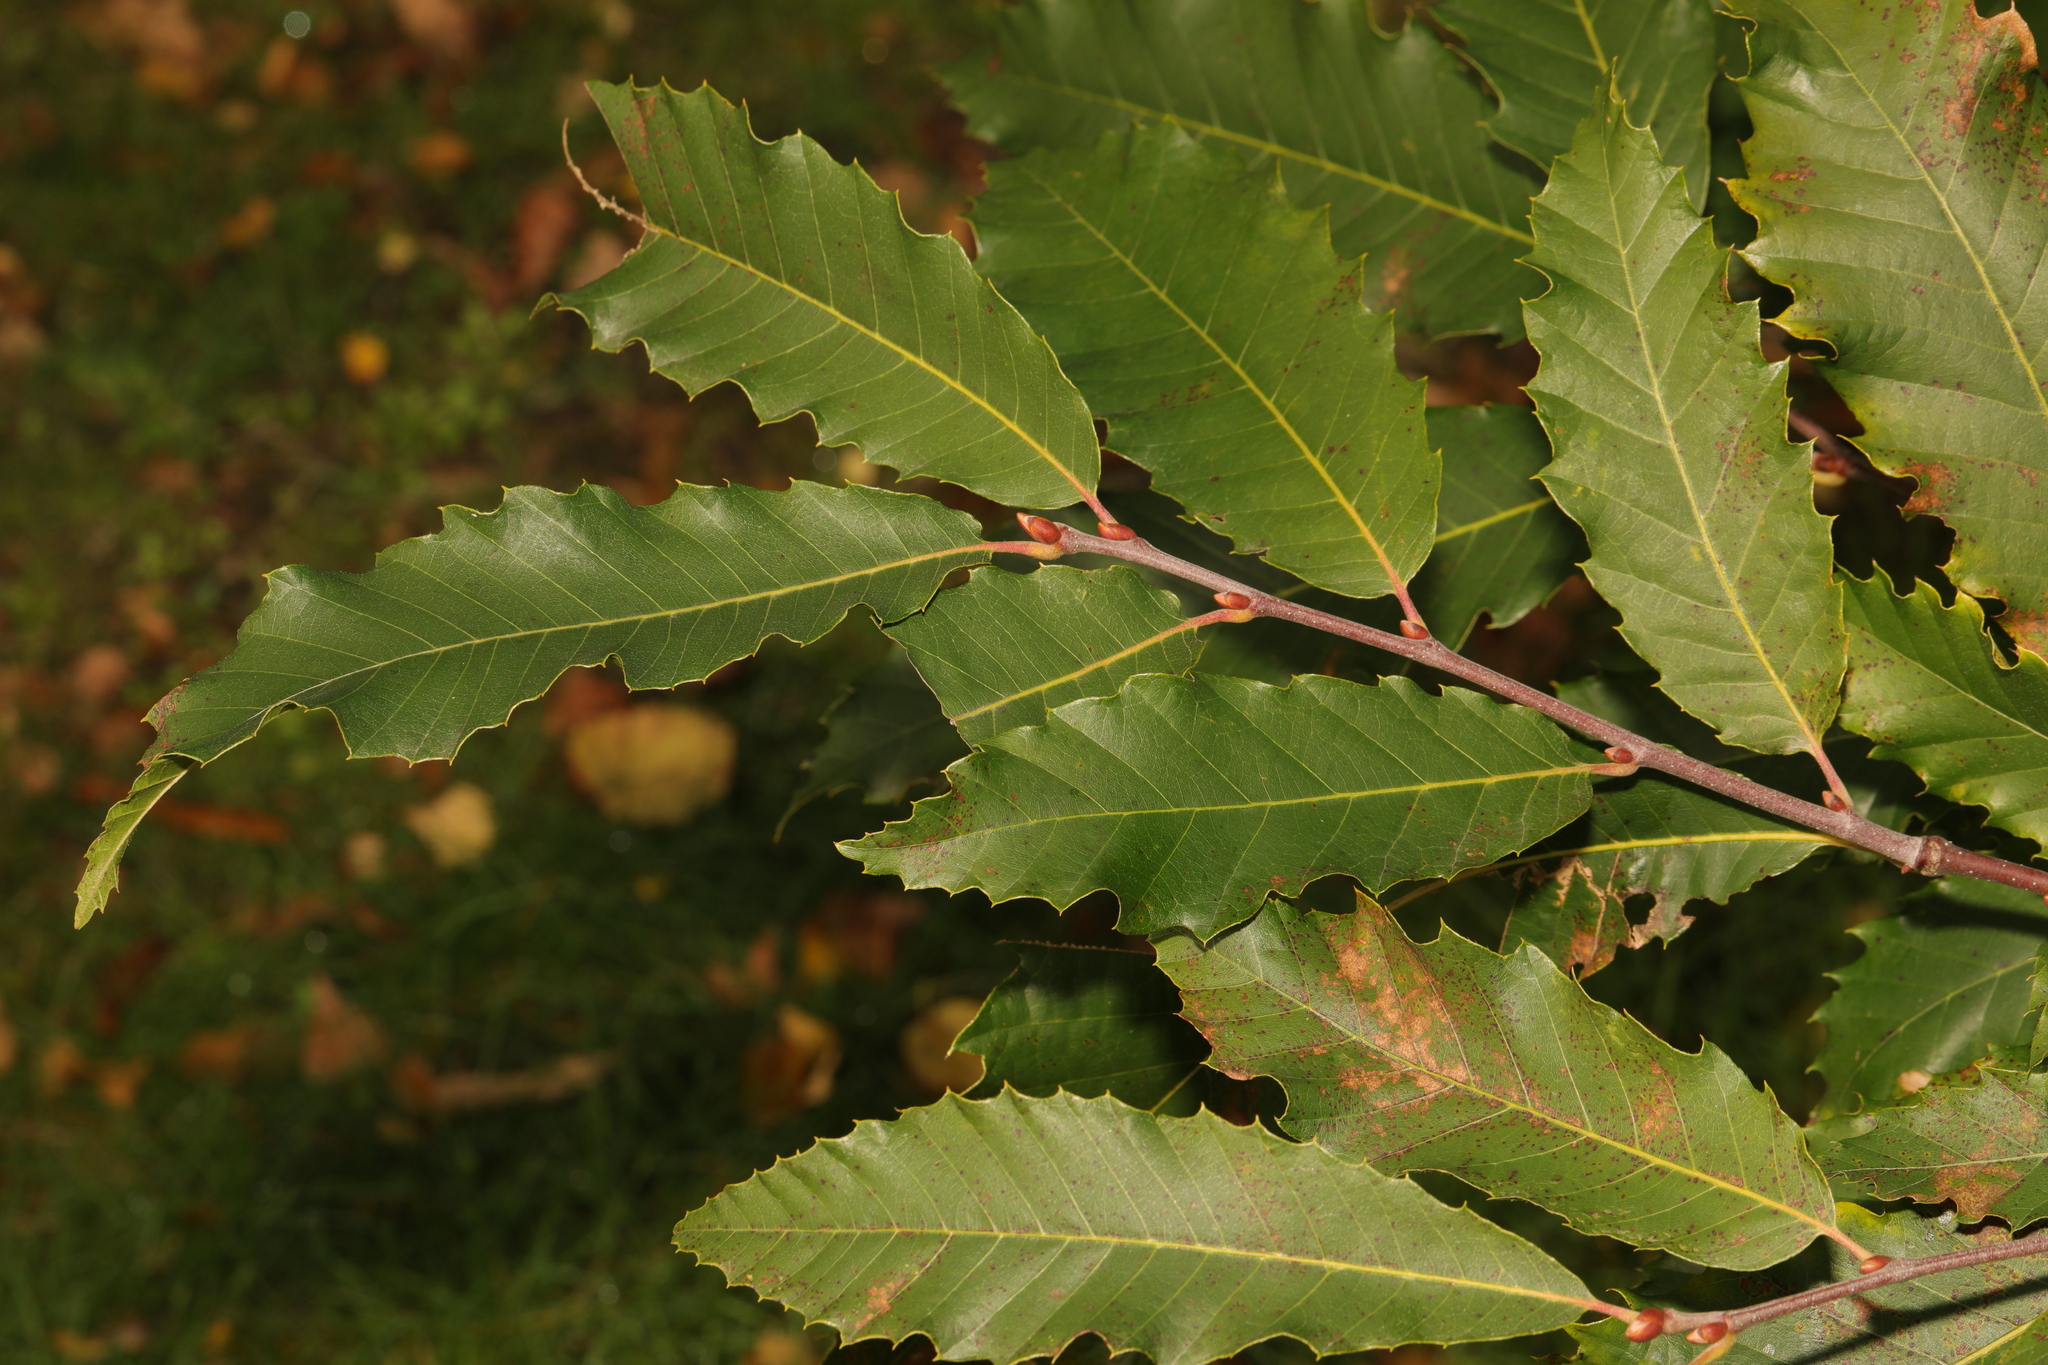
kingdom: Plantae
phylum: Tracheophyta
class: Magnoliopsida
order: Fagales
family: Fagaceae
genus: Castanea
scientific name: Castanea sativa
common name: Sweet chestnut
